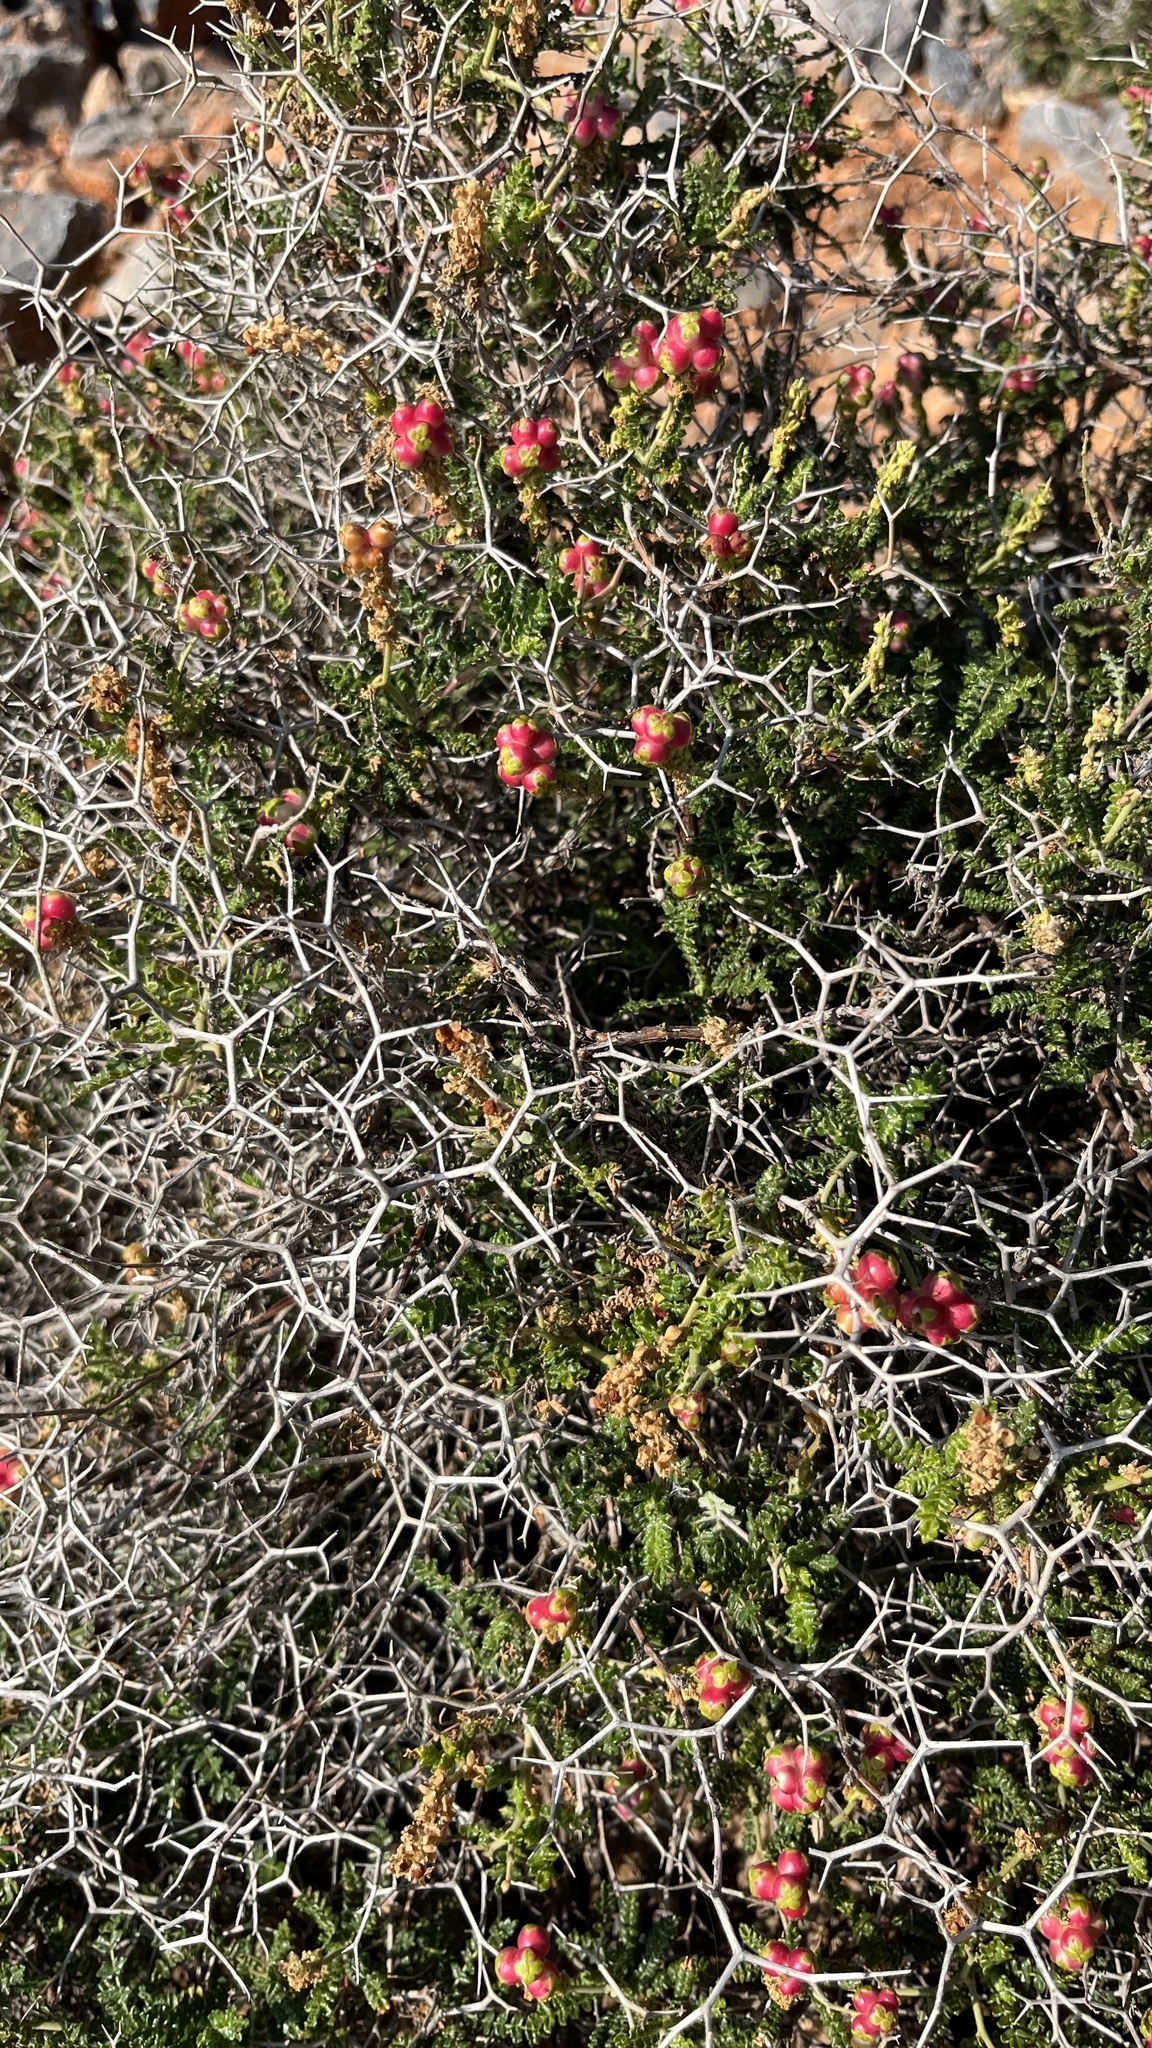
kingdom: Plantae
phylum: Tracheophyta
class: Magnoliopsida
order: Rosales
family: Rosaceae
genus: Sarcopoterium
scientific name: Sarcopoterium spinosum
